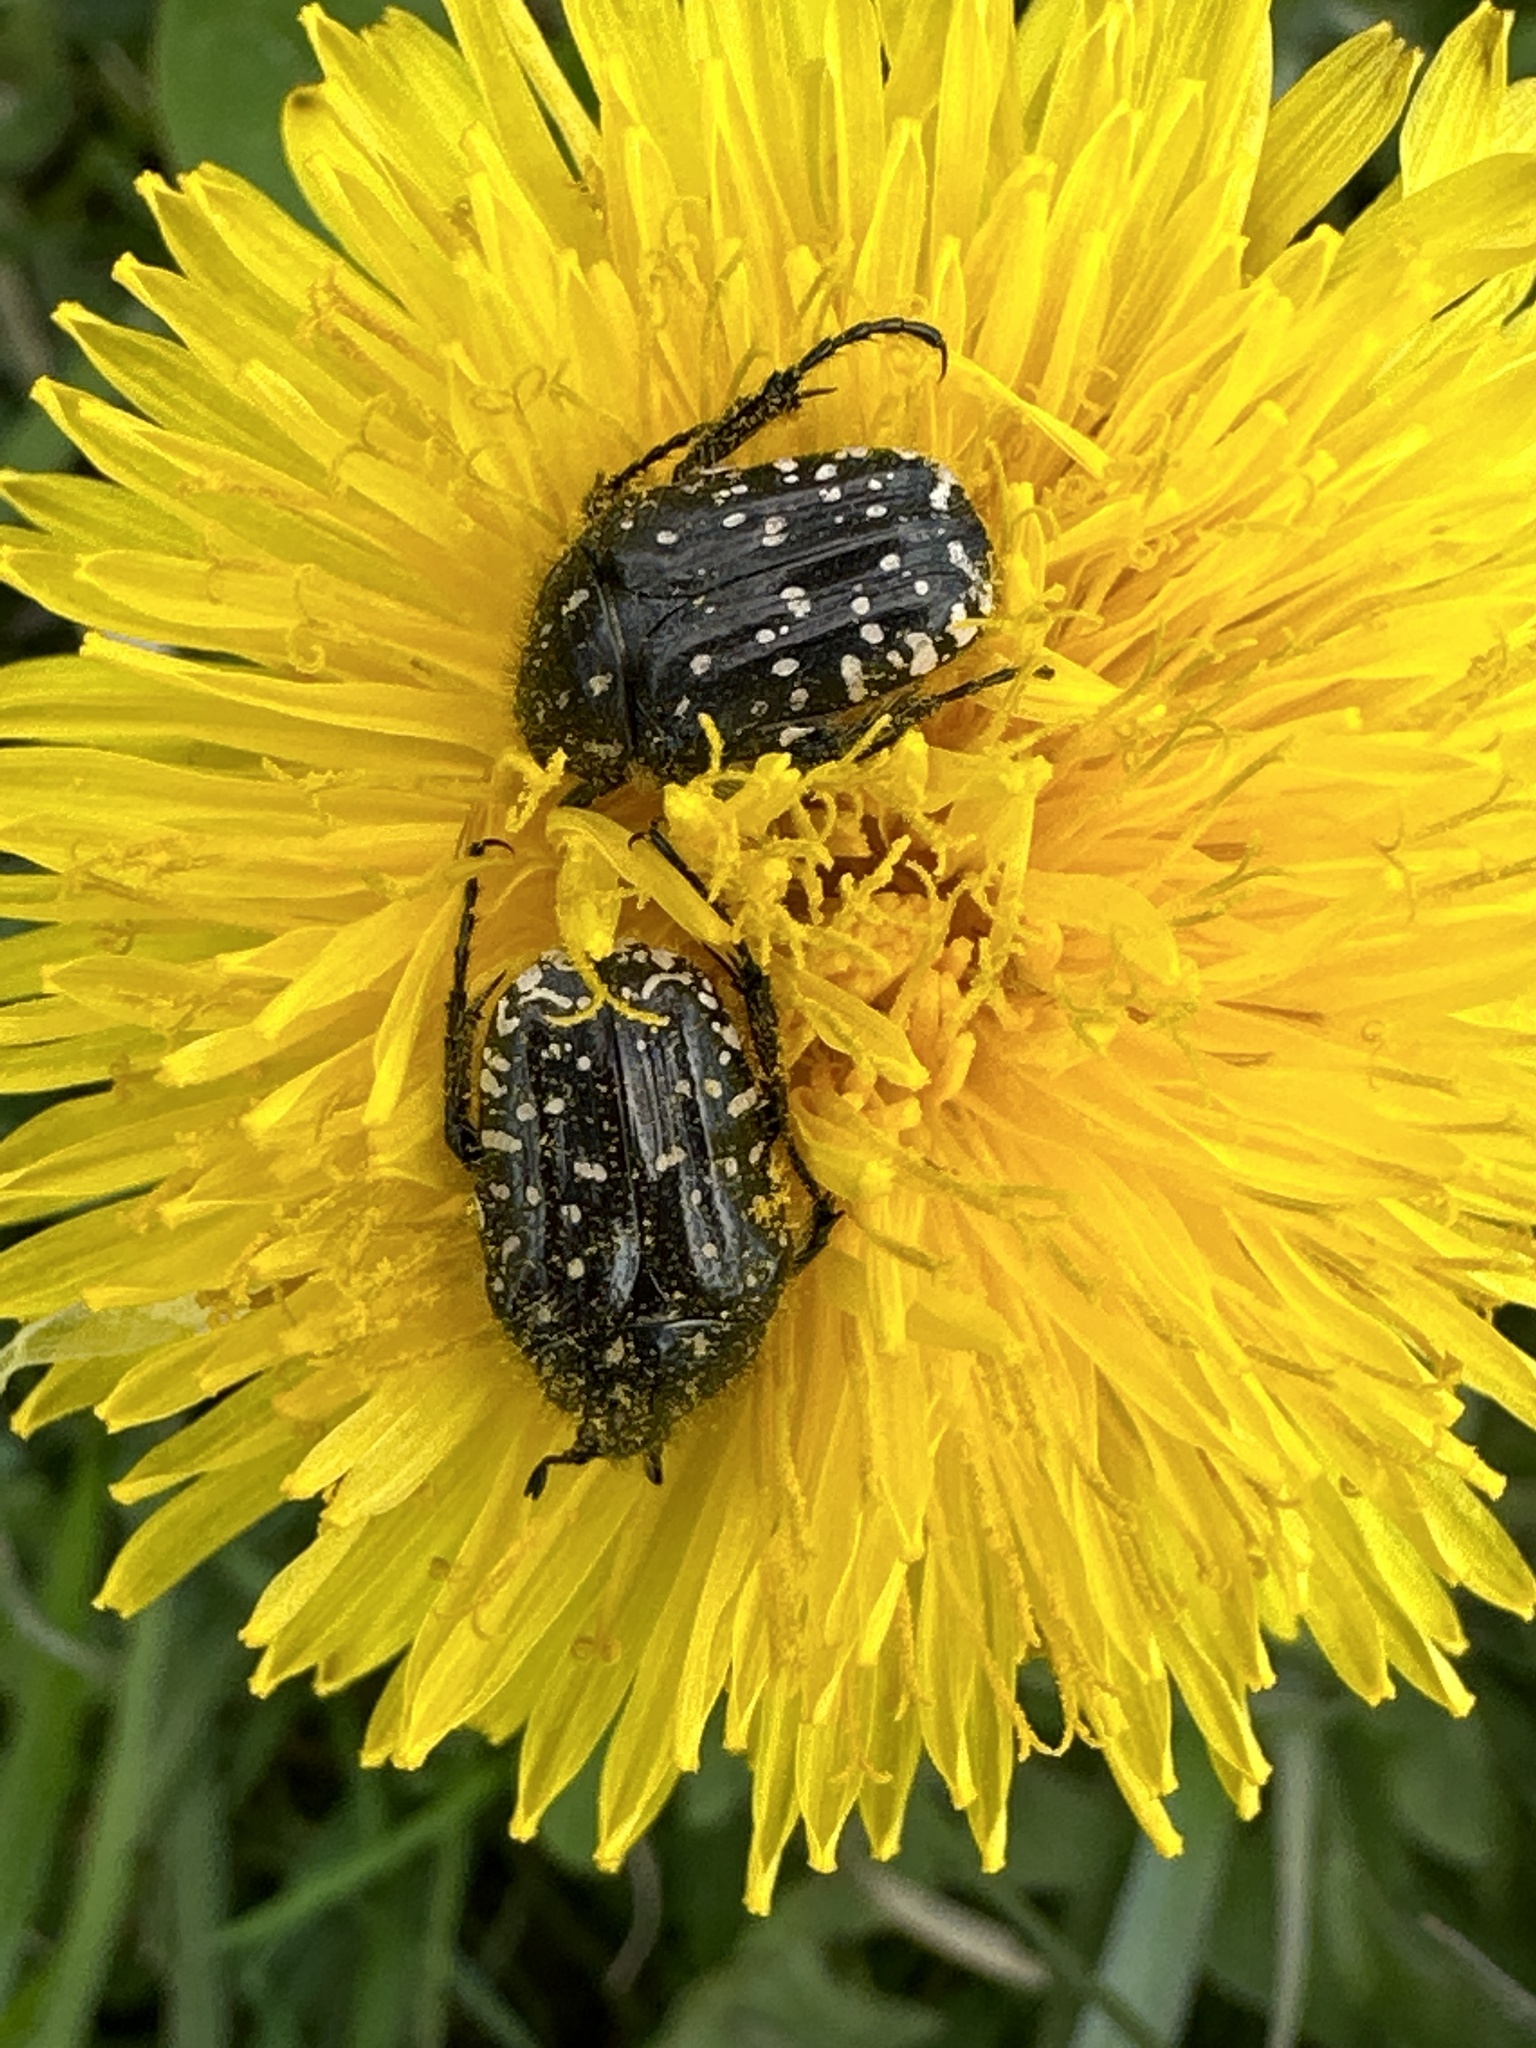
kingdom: Animalia
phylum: Arthropoda
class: Insecta
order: Coleoptera
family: Scarabaeidae
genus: Oxythyrea
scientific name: Oxythyrea funesta
